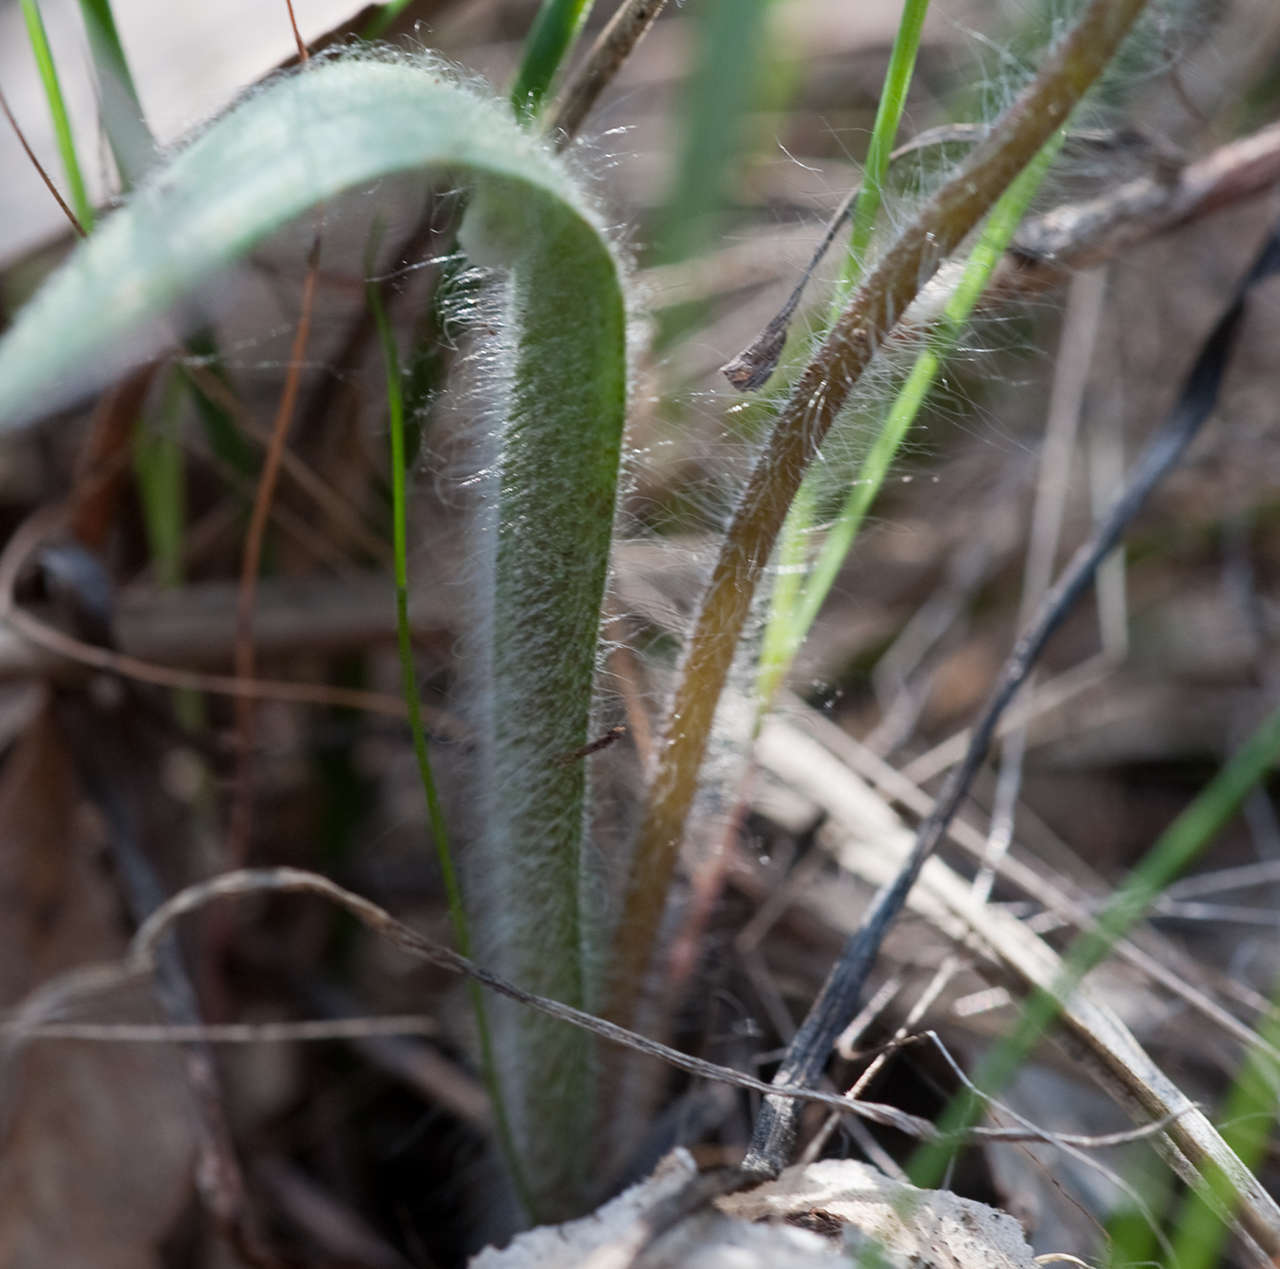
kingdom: Plantae
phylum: Tracheophyta
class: Liliopsida
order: Asparagales
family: Orchidaceae
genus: Caladenia
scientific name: Caladenia parva
